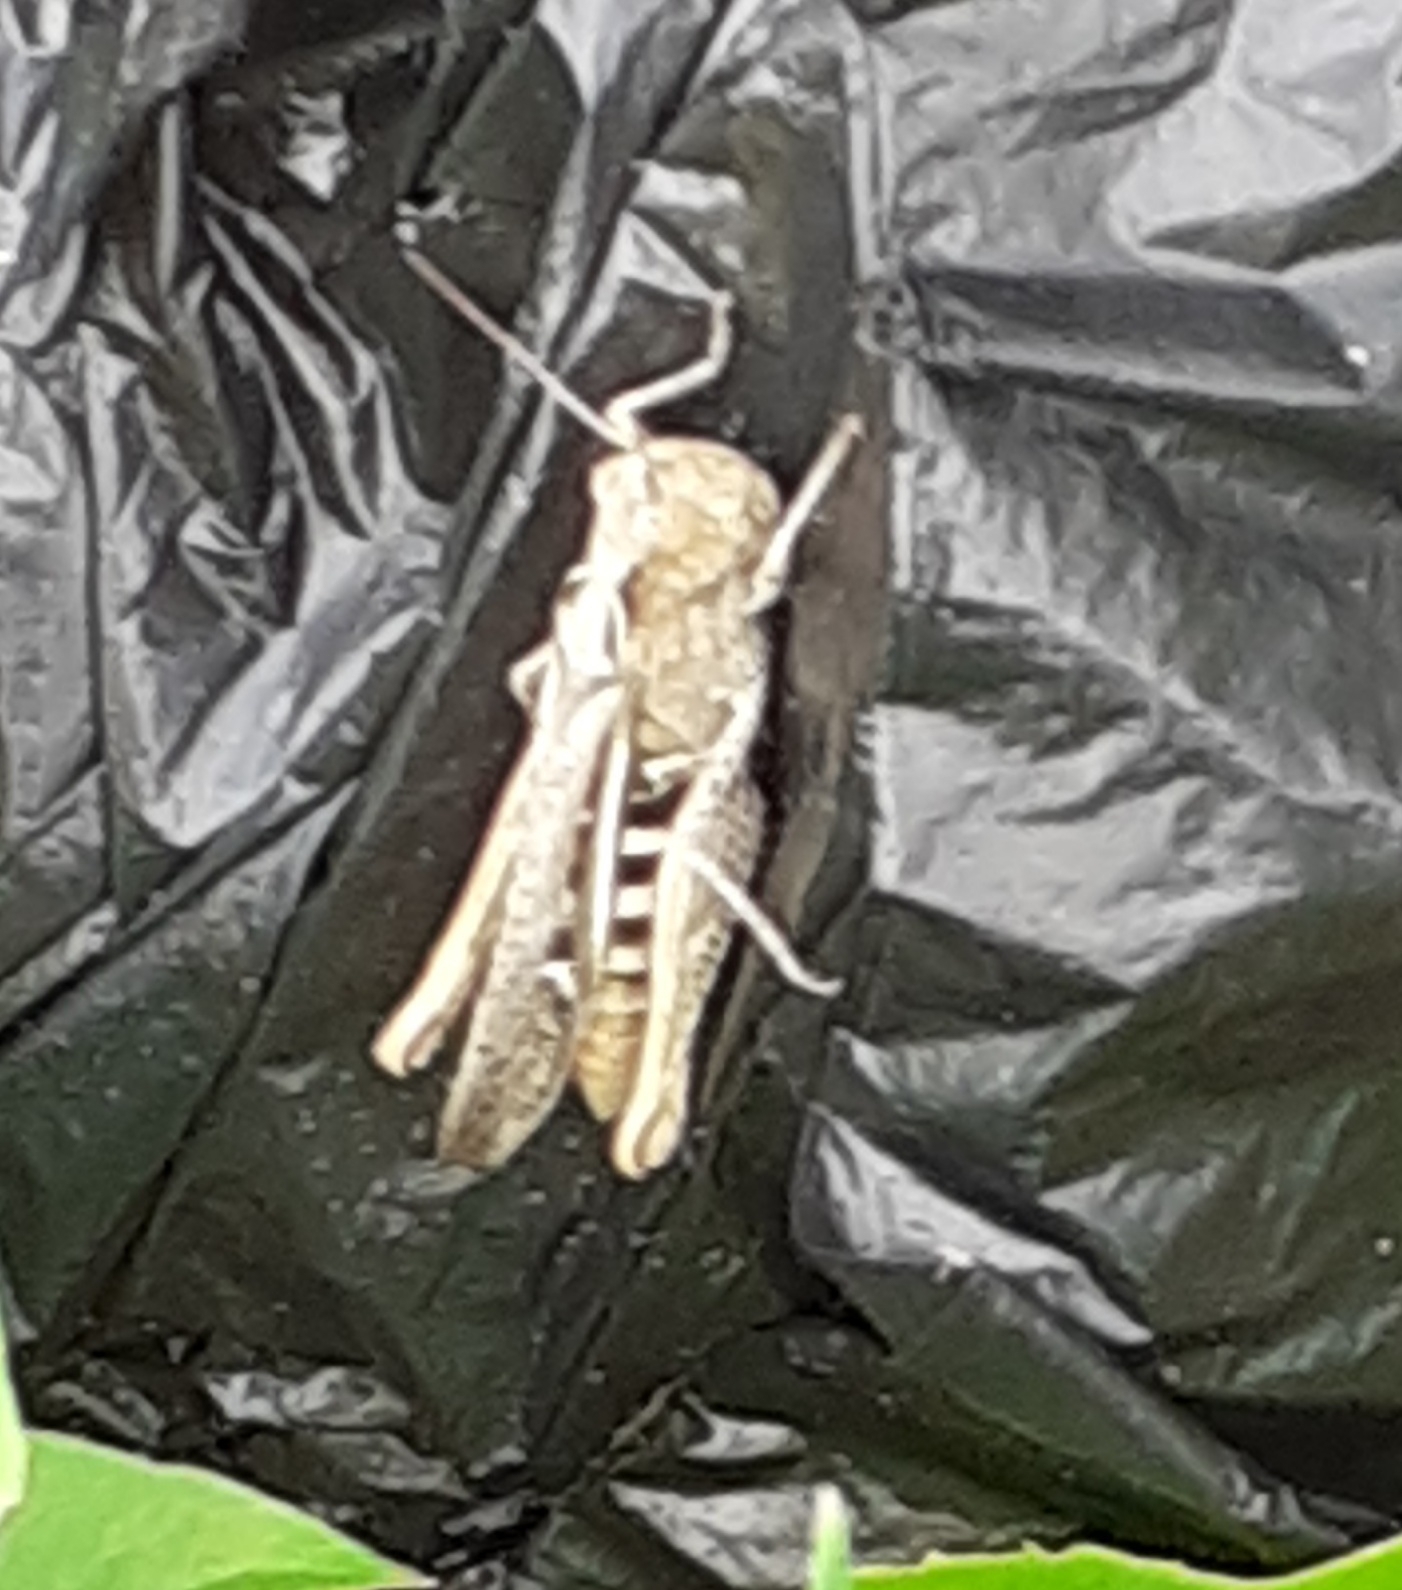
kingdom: Animalia
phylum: Arthropoda
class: Insecta
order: Orthoptera
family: Acrididae
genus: Chorthippus
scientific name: Chorthippus brunneus
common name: Field grasshopper
